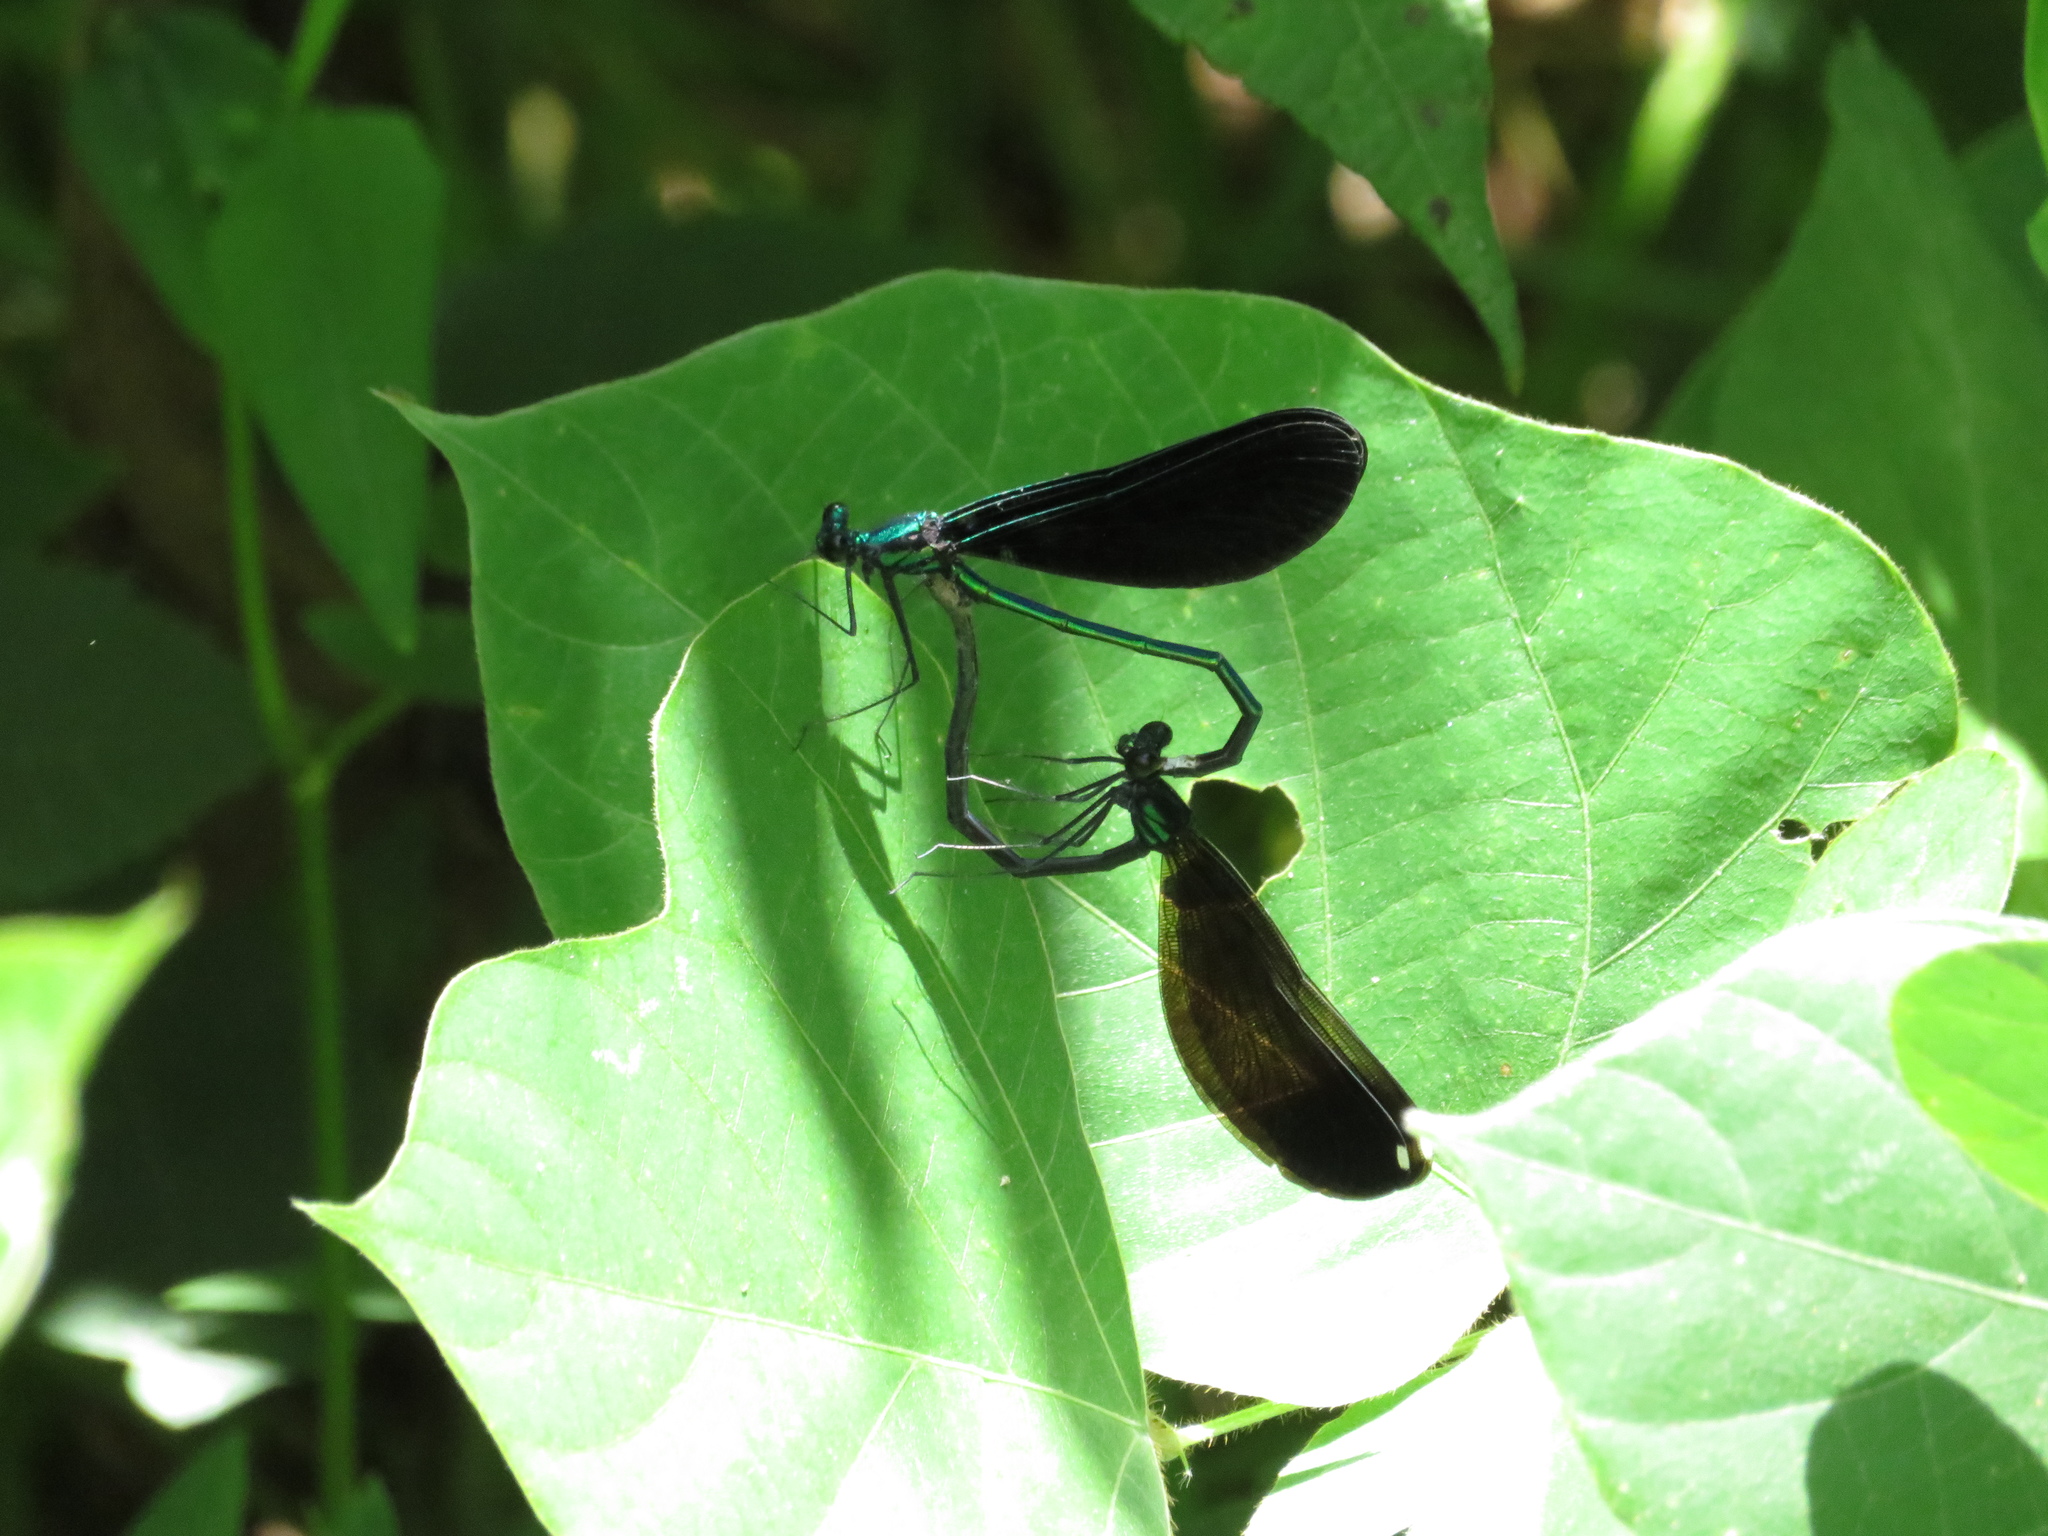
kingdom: Animalia
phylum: Arthropoda
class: Insecta
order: Odonata
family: Calopterygidae
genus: Calopteryx
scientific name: Calopteryx maculata
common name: Ebony jewelwing
